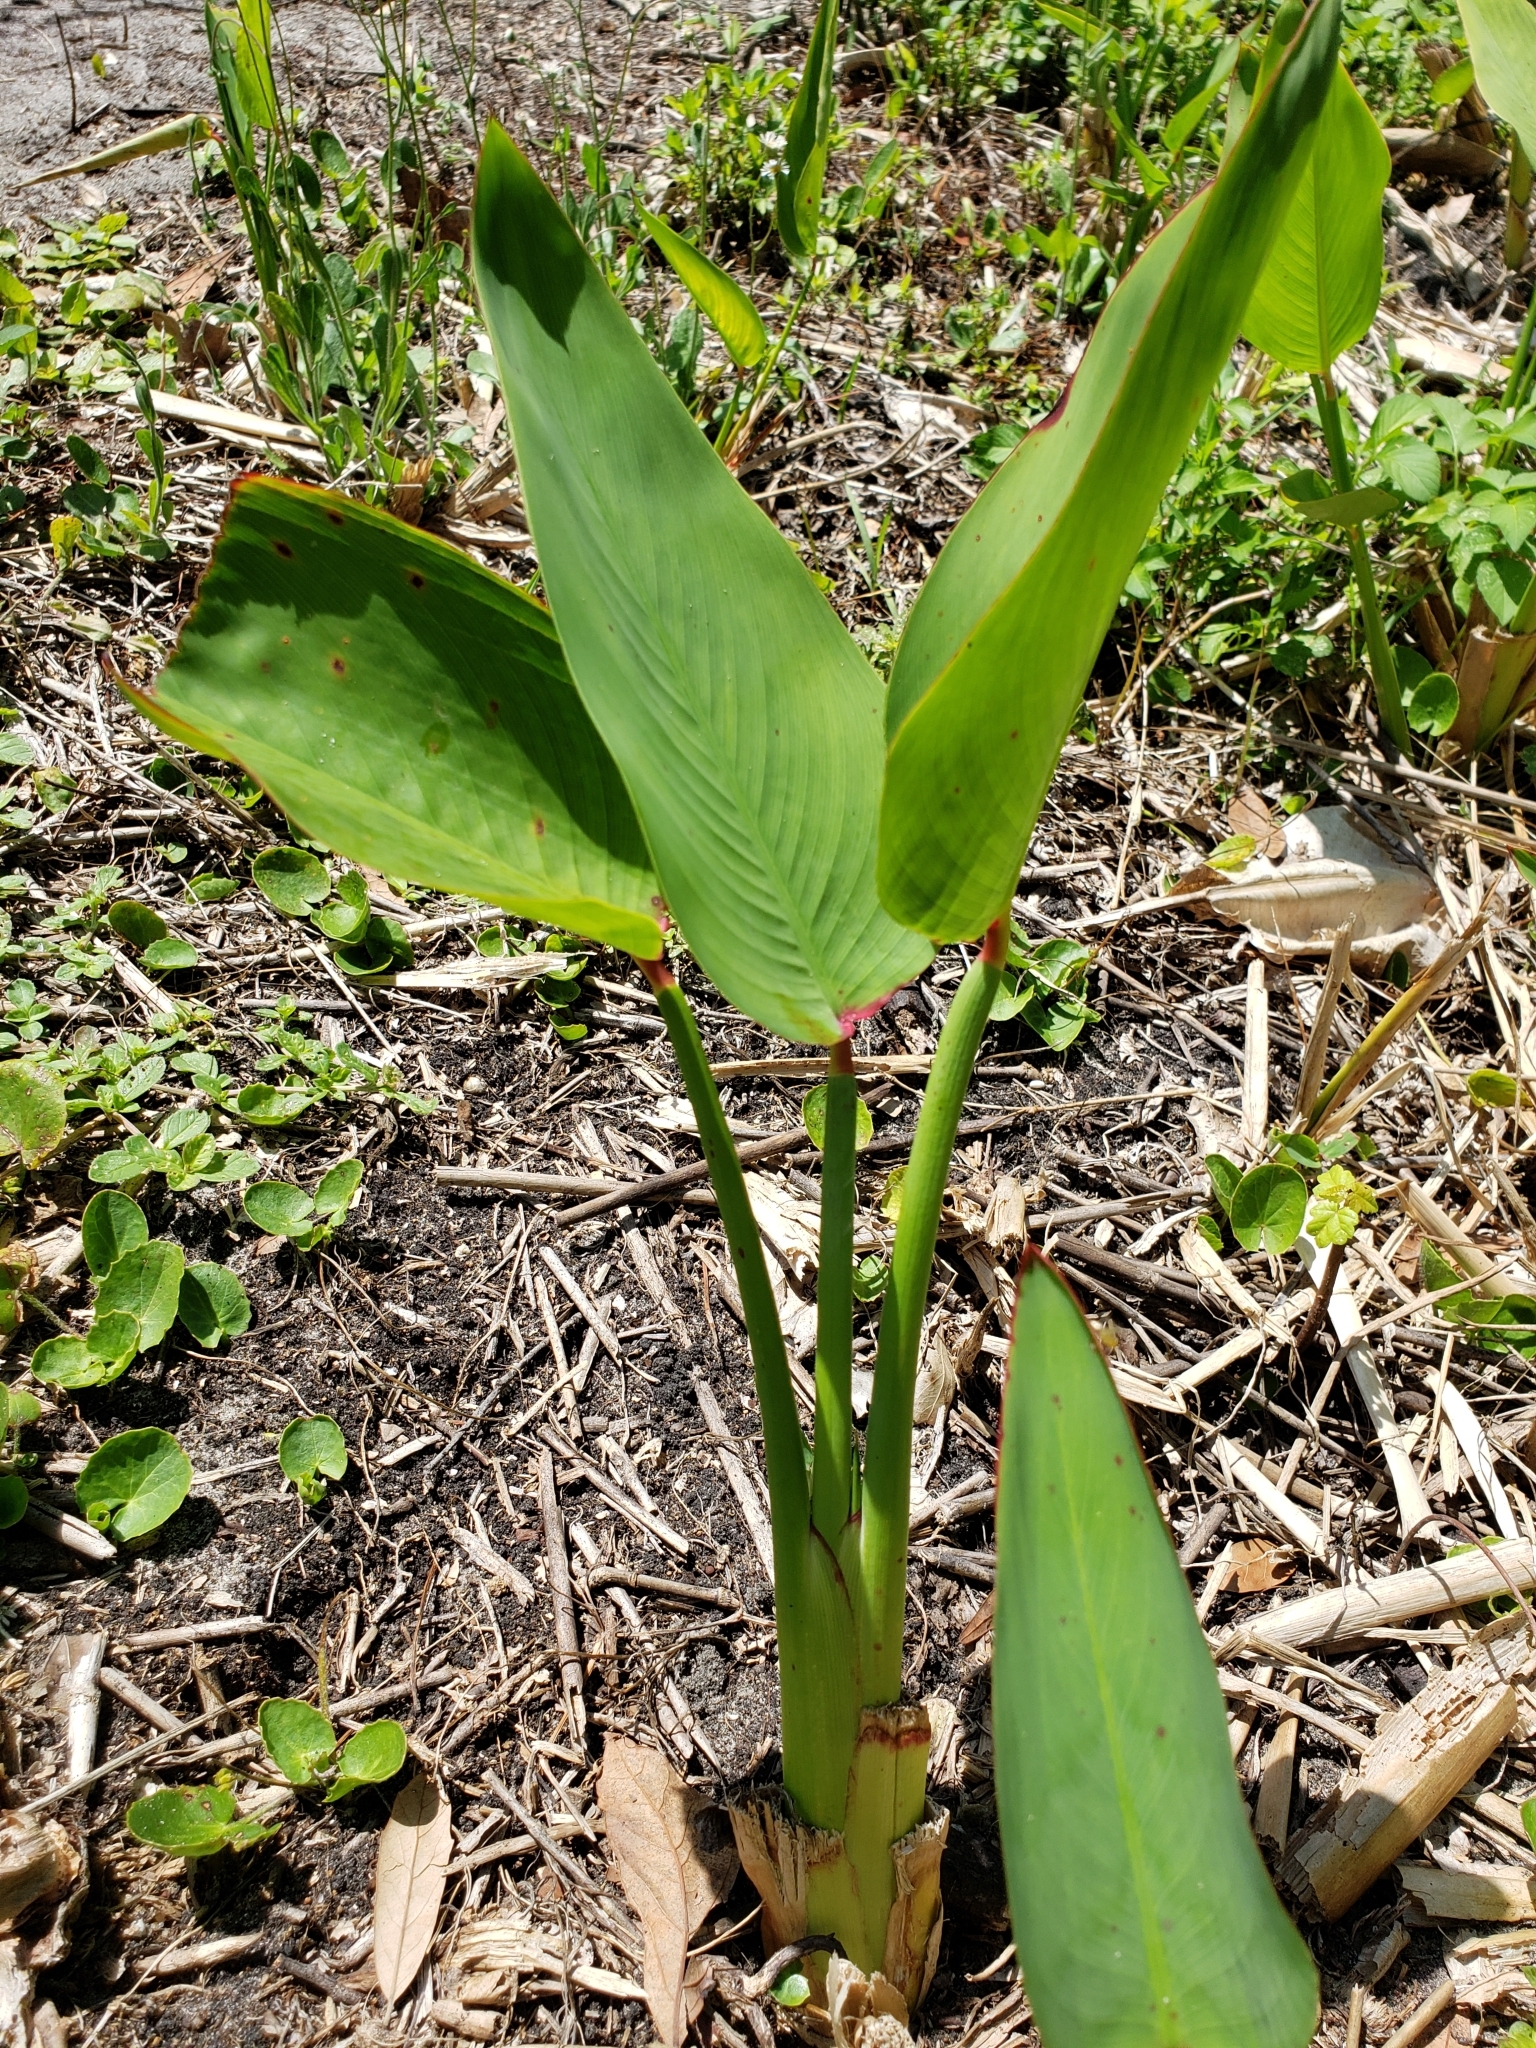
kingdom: Plantae
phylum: Tracheophyta
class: Liliopsida
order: Zingiberales
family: Marantaceae
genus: Thalia
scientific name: Thalia geniculata
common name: Arrowroot
